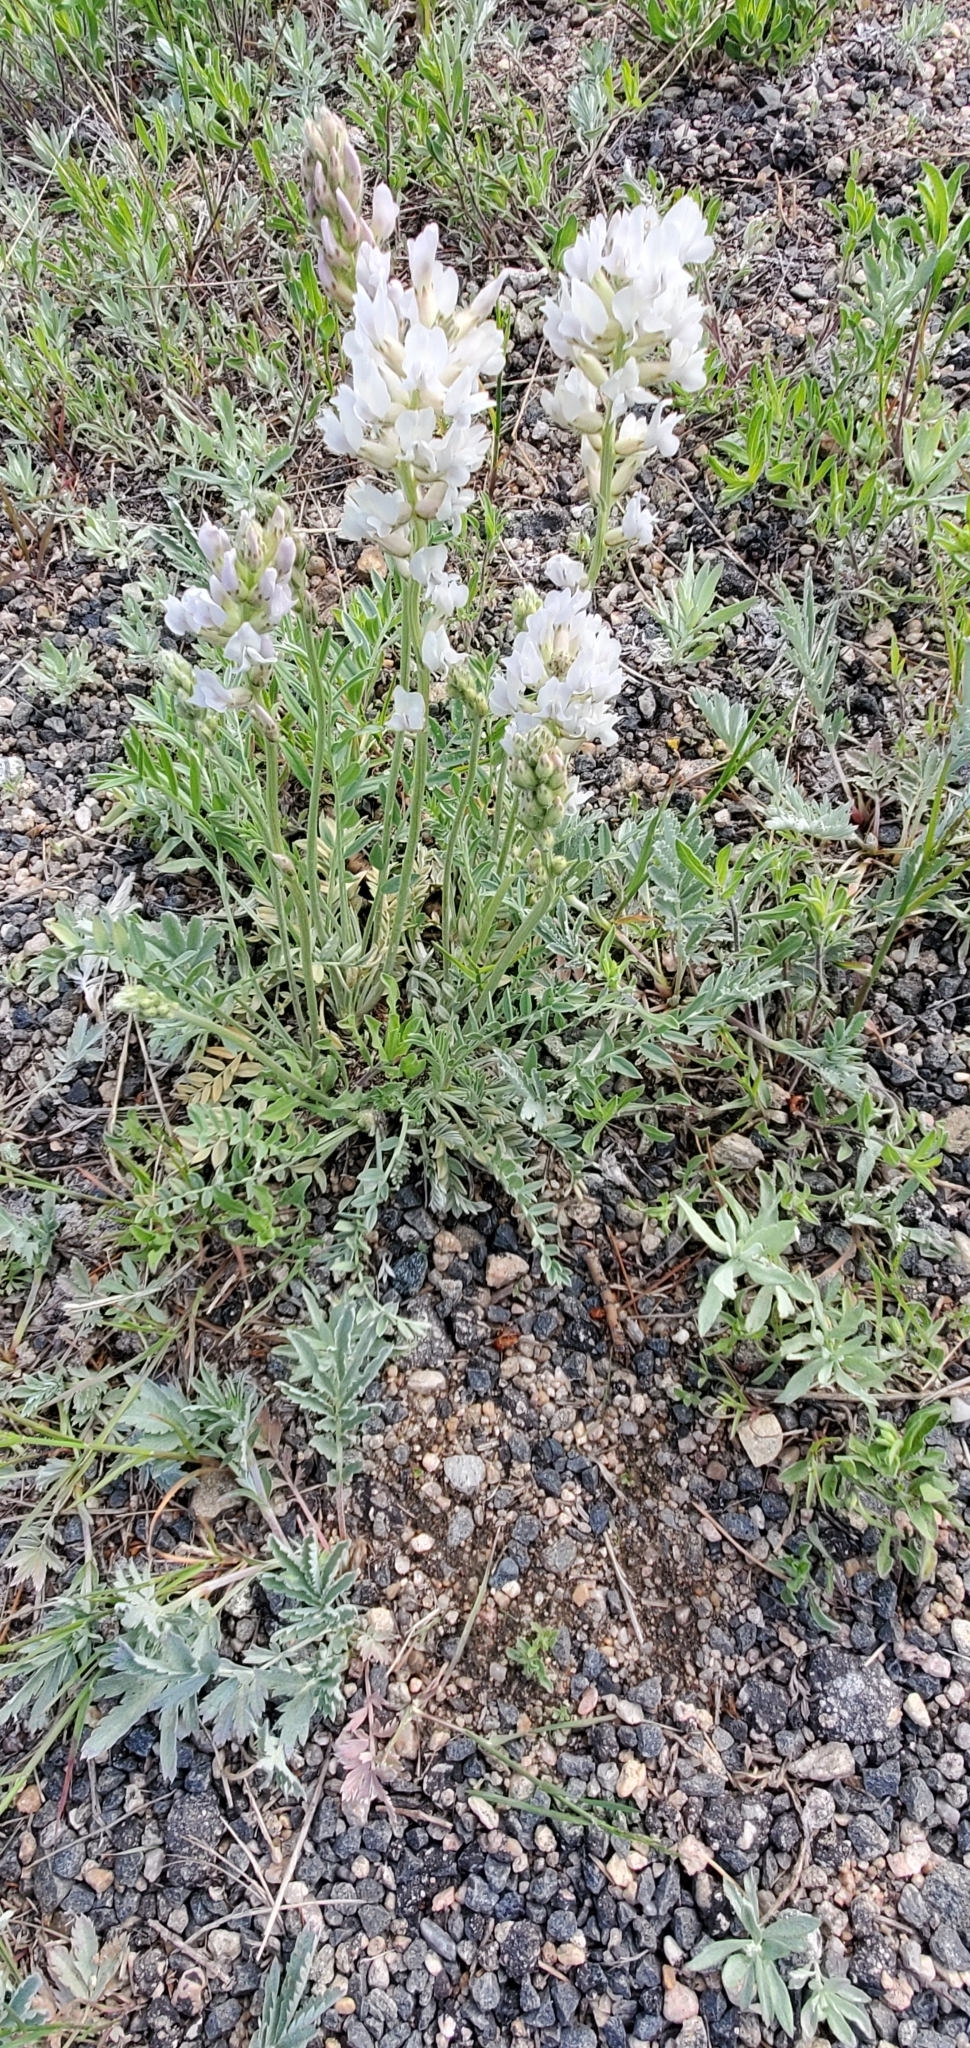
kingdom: Plantae
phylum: Tracheophyta
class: Magnoliopsida
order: Fabales
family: Fabaceae
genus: Oxytropis
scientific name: Oxytropis sericea
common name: Silky locoweed
